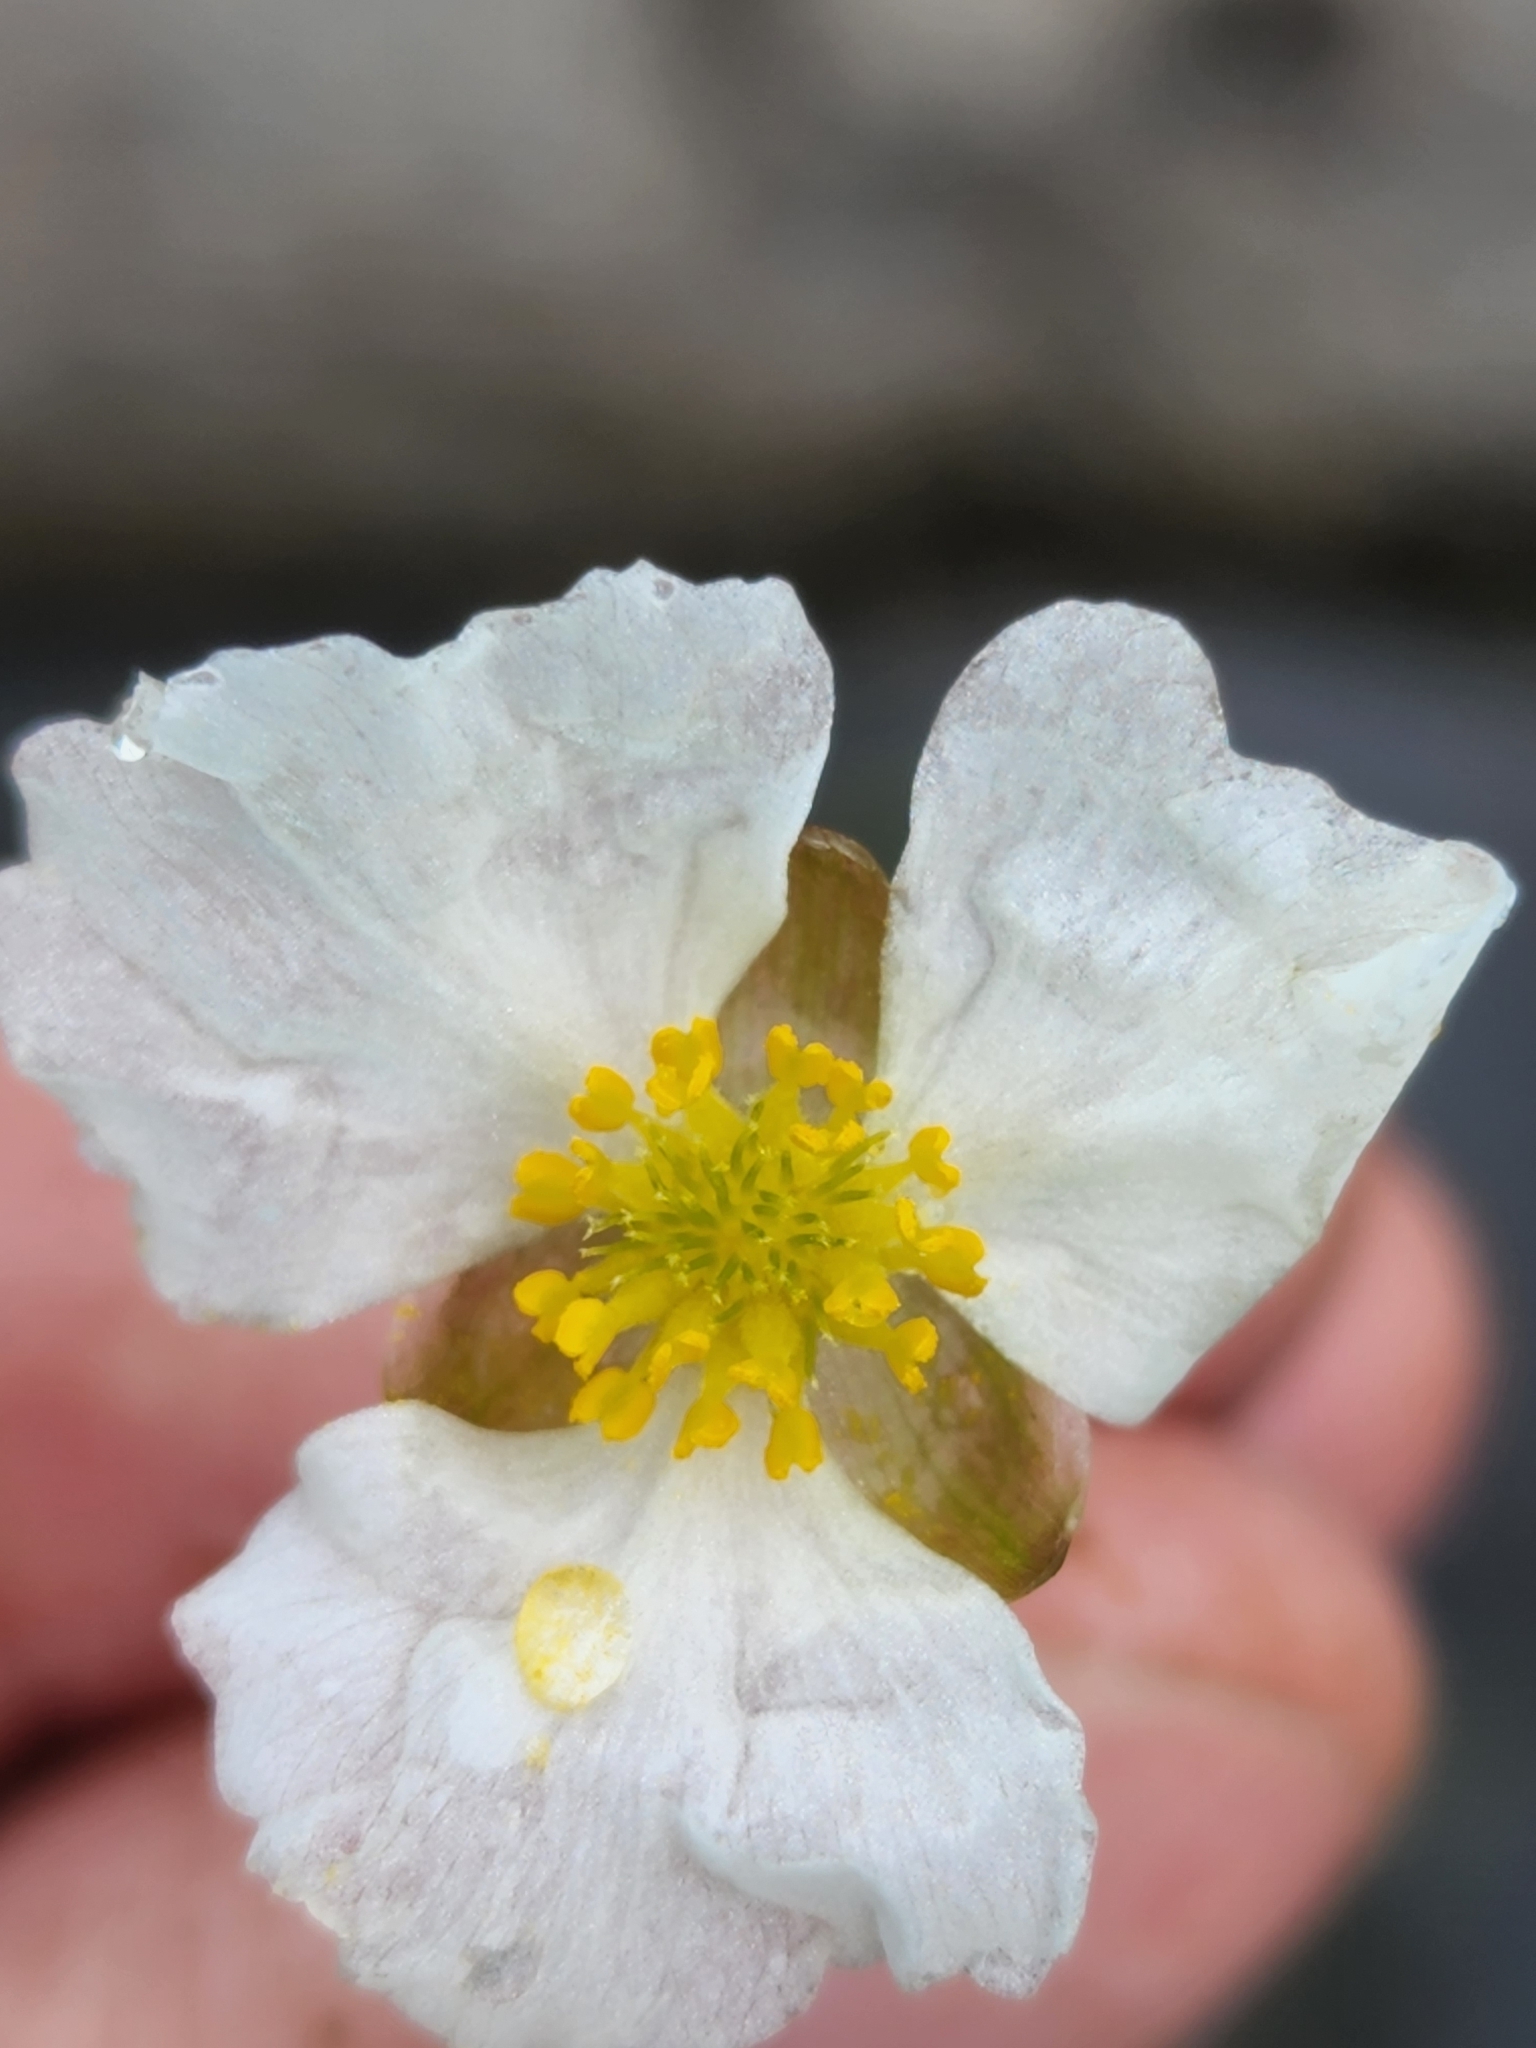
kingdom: Plantae
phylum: Tracheophyta
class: Liliopsida
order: Alismatales
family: Alismataceae
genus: Sagittaria
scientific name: Sagittaria rigida
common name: Canadian arrowhead
